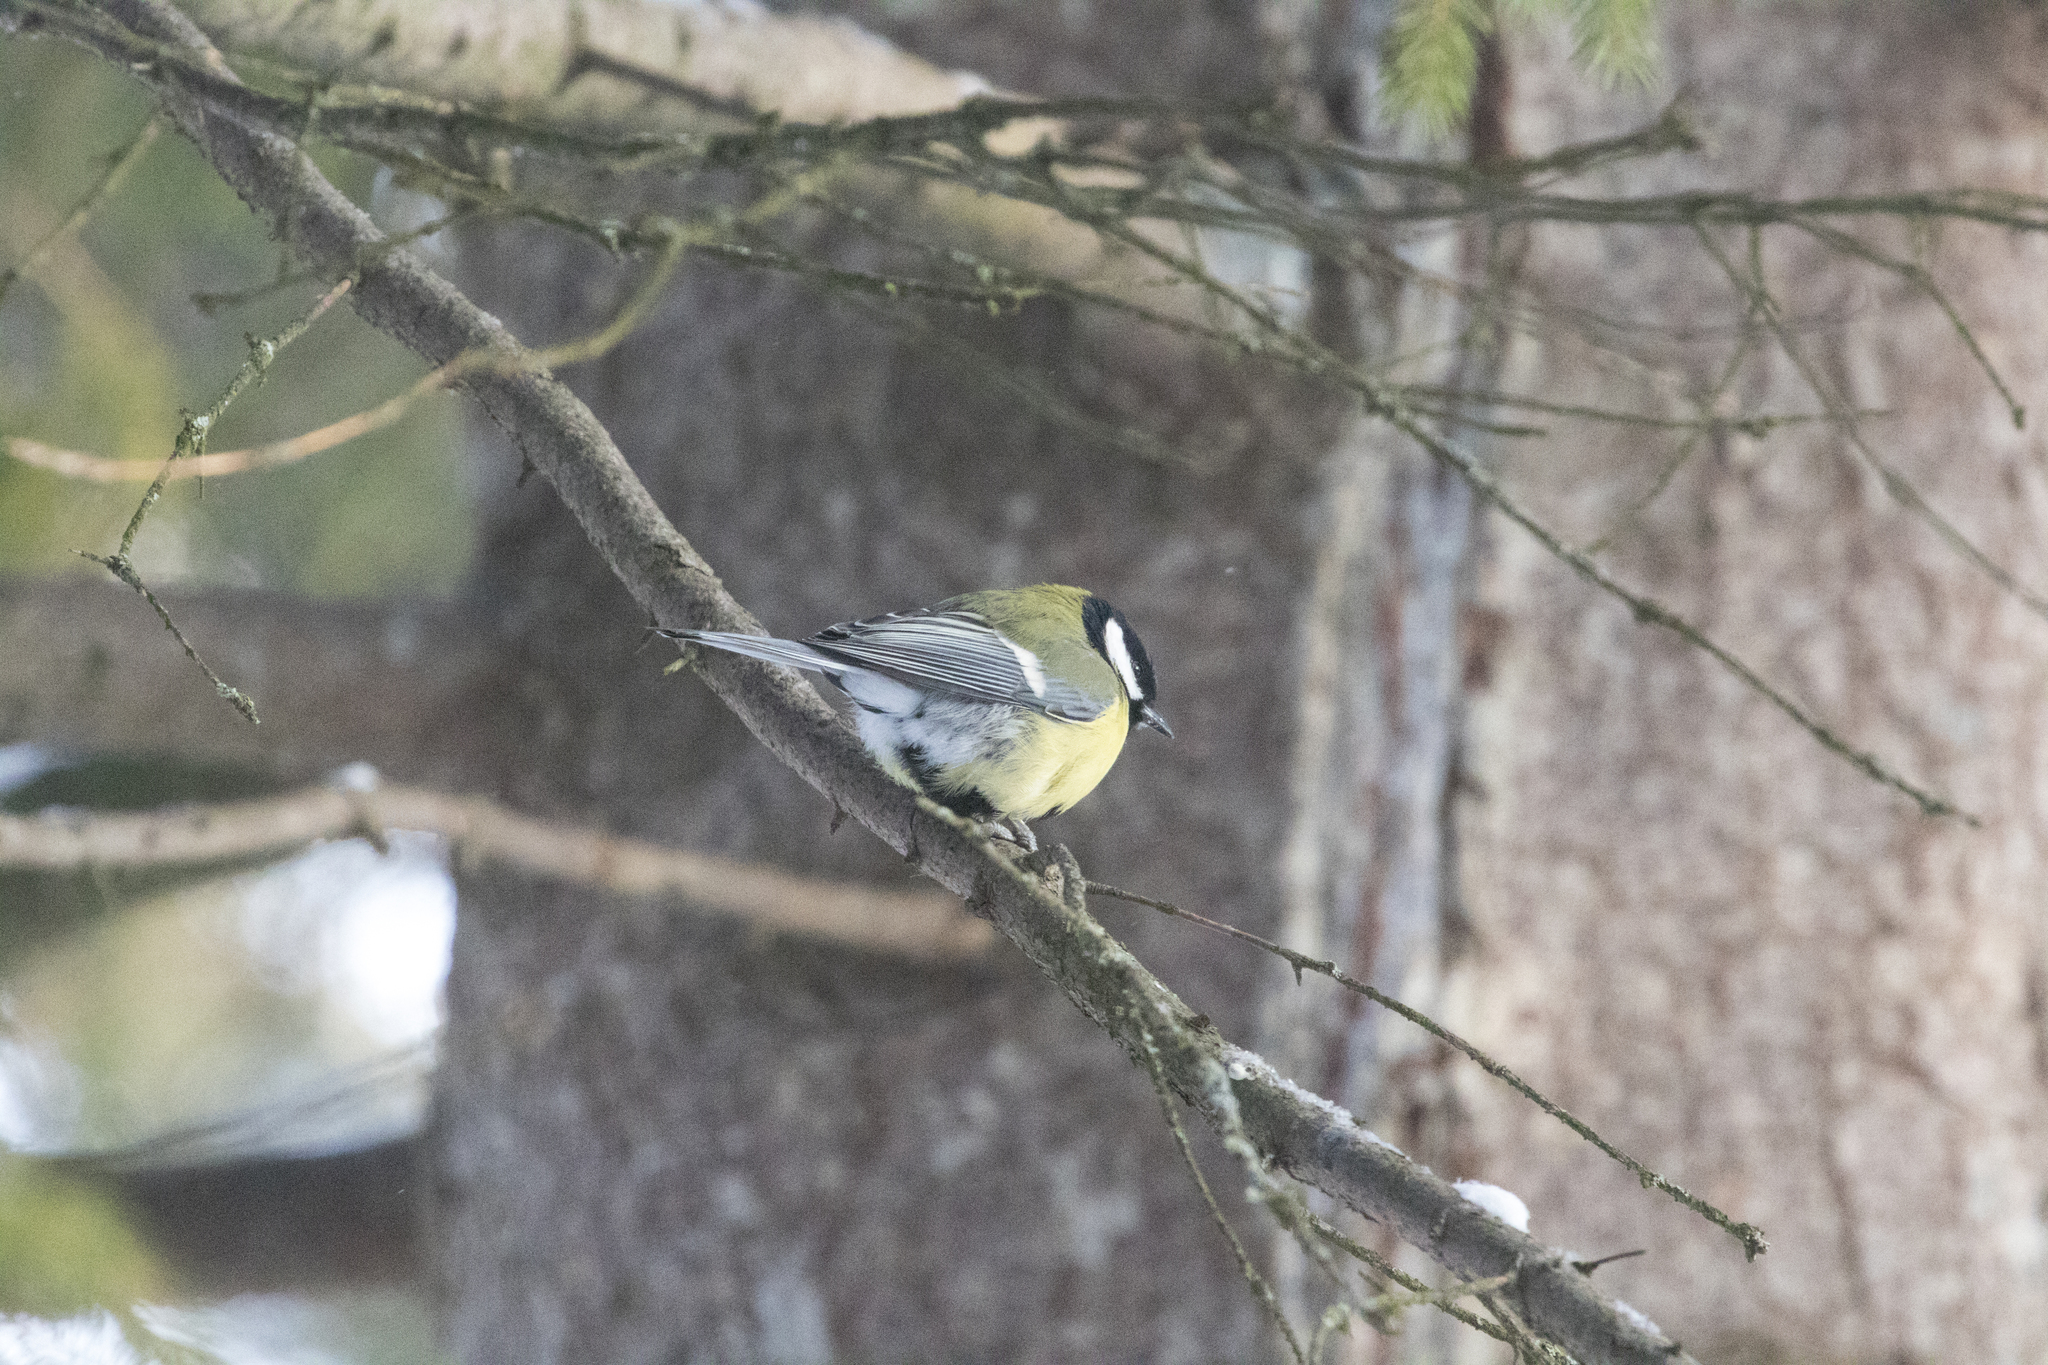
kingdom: Animalia
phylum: Chordata
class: Aves
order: Passeriformes
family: Paridae
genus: Parus
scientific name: Parus major
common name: Great tit
